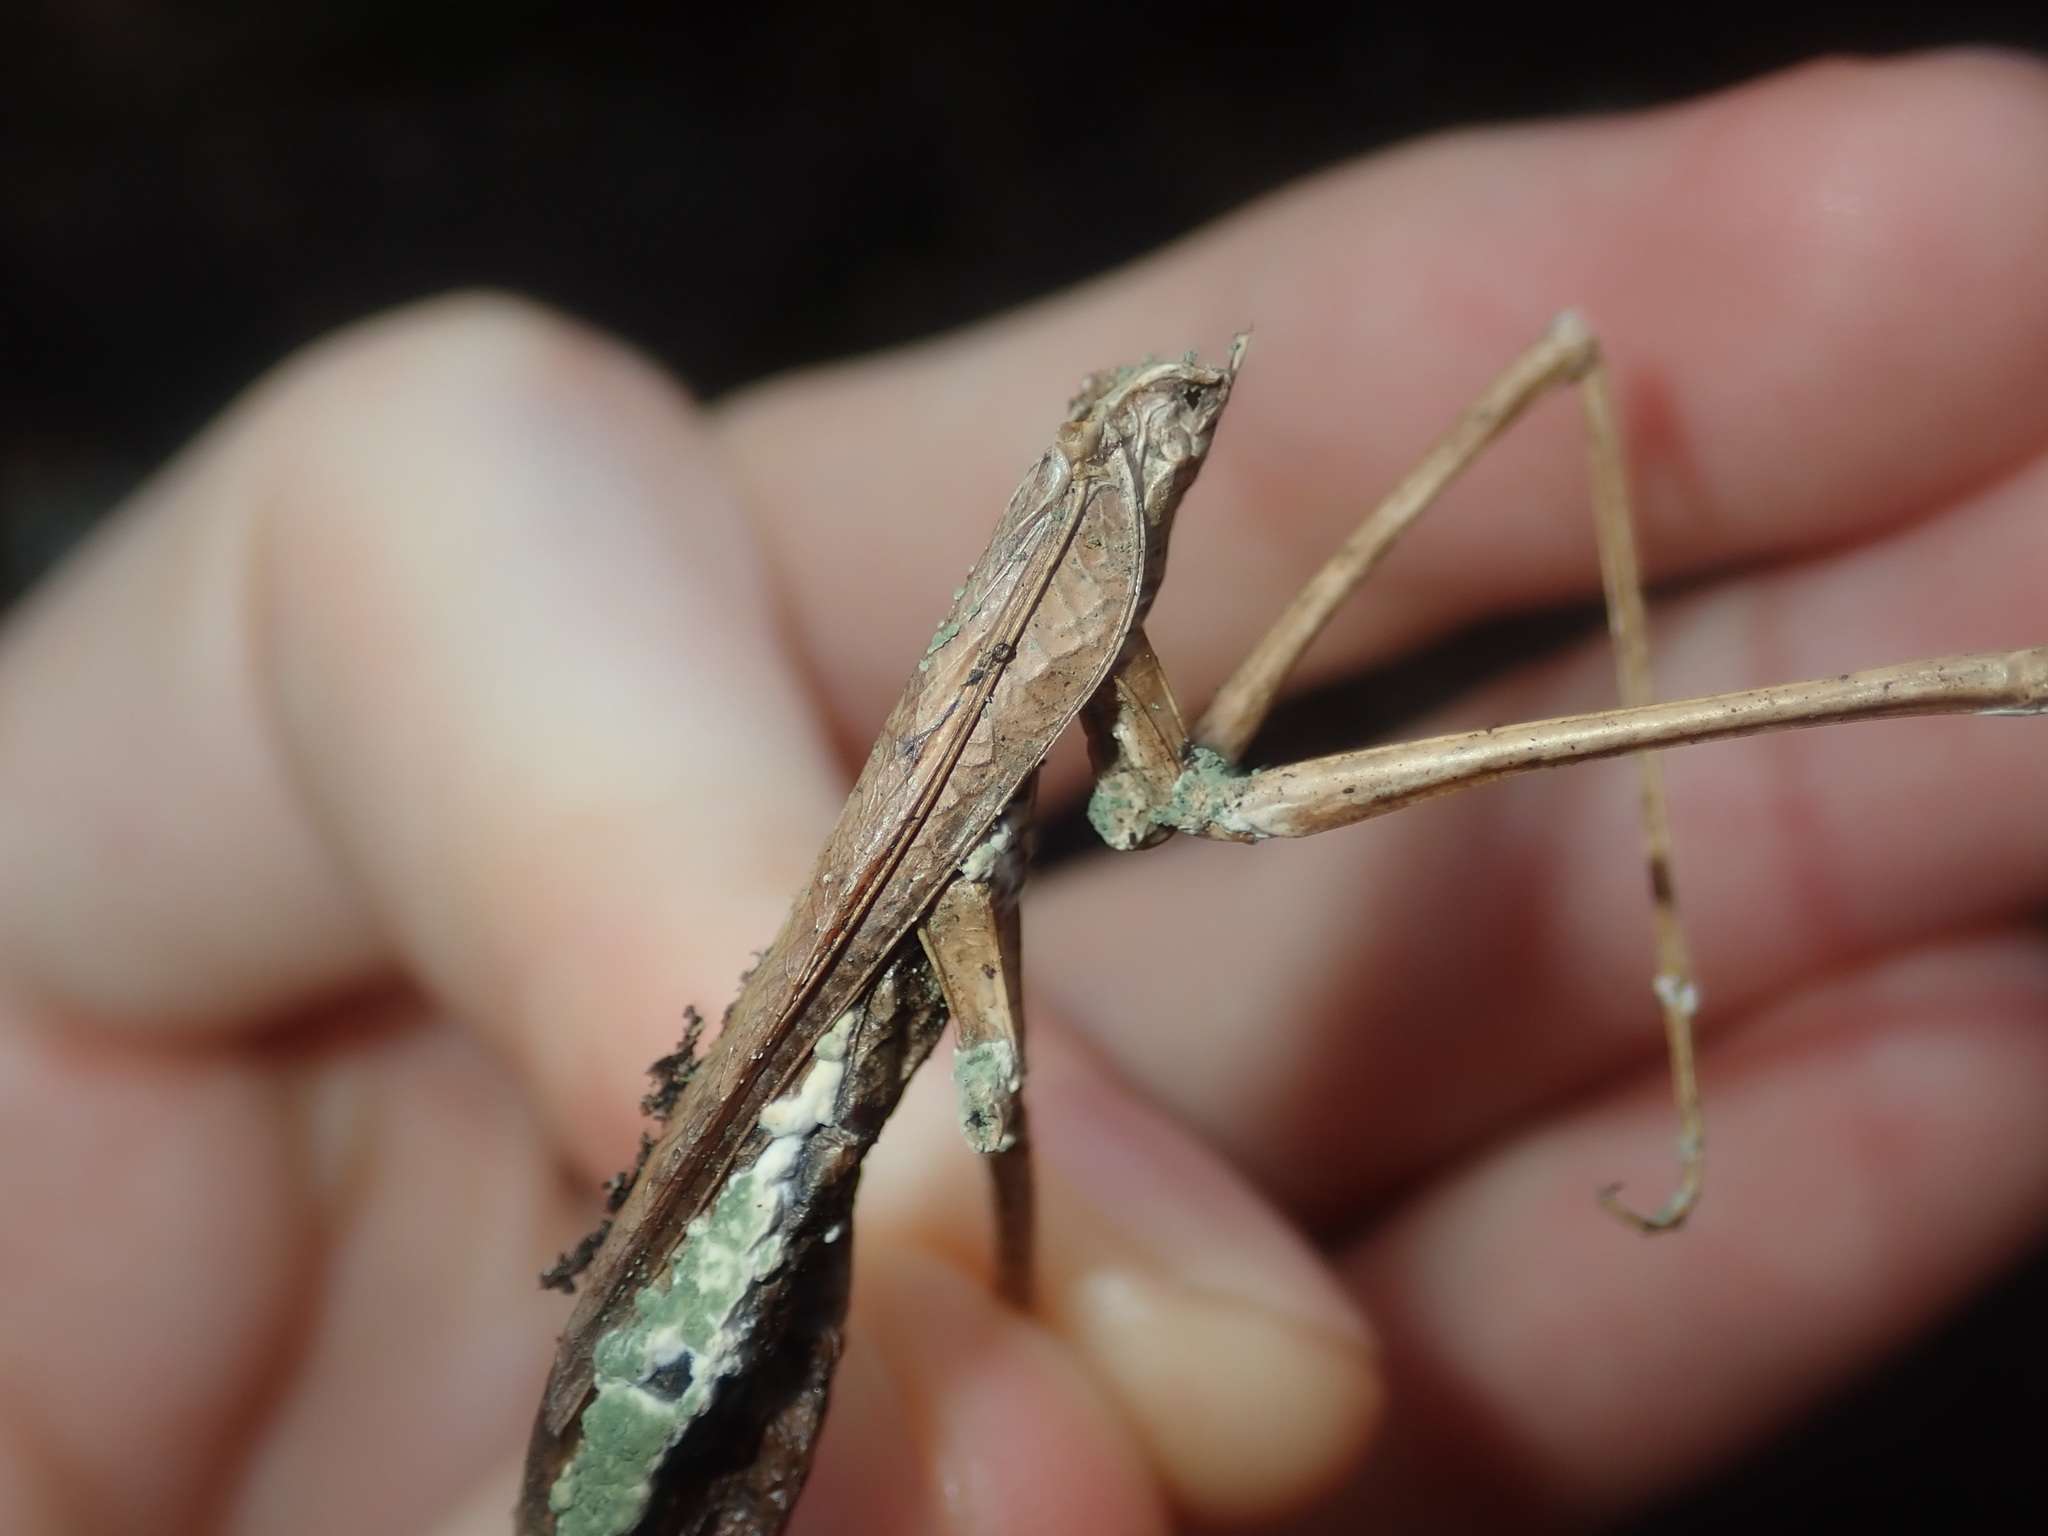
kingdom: Animalia
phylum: Arthropoda
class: Insecta
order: Mantodea
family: Mantidae
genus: Archimantis
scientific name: Archimantis latistyla
